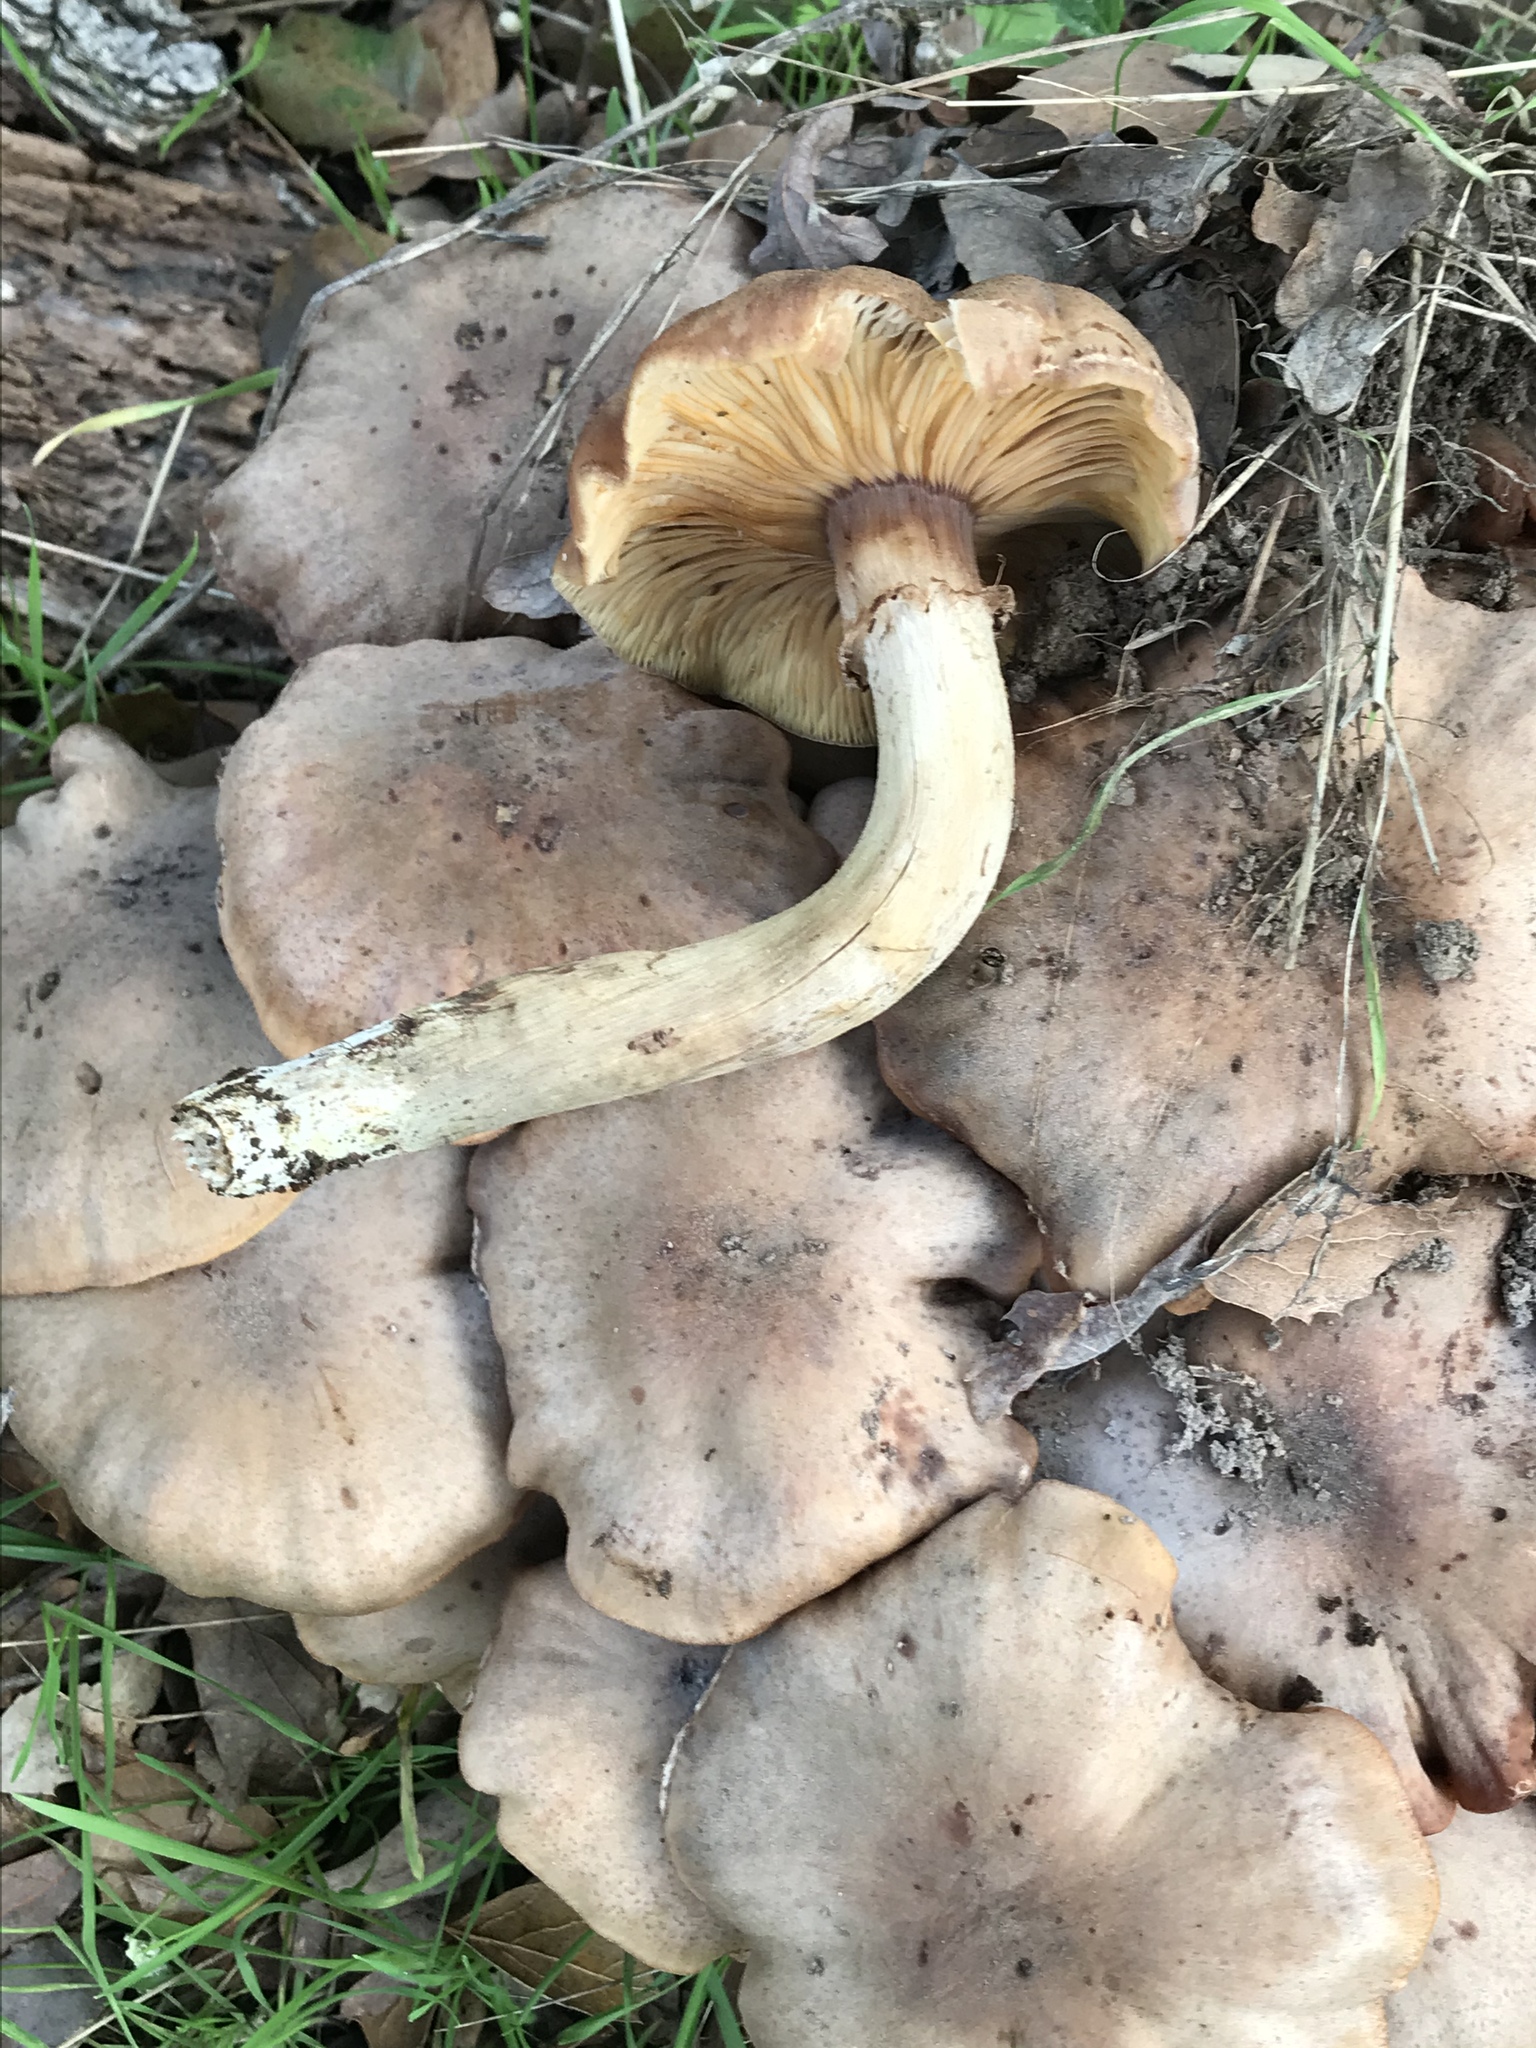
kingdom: Fungi
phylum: Basidiomycota
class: Agaricomycetes
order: Agaricales
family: Physalacriaceae
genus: Armillaria
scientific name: Armillaria mellea
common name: Honey fungus
